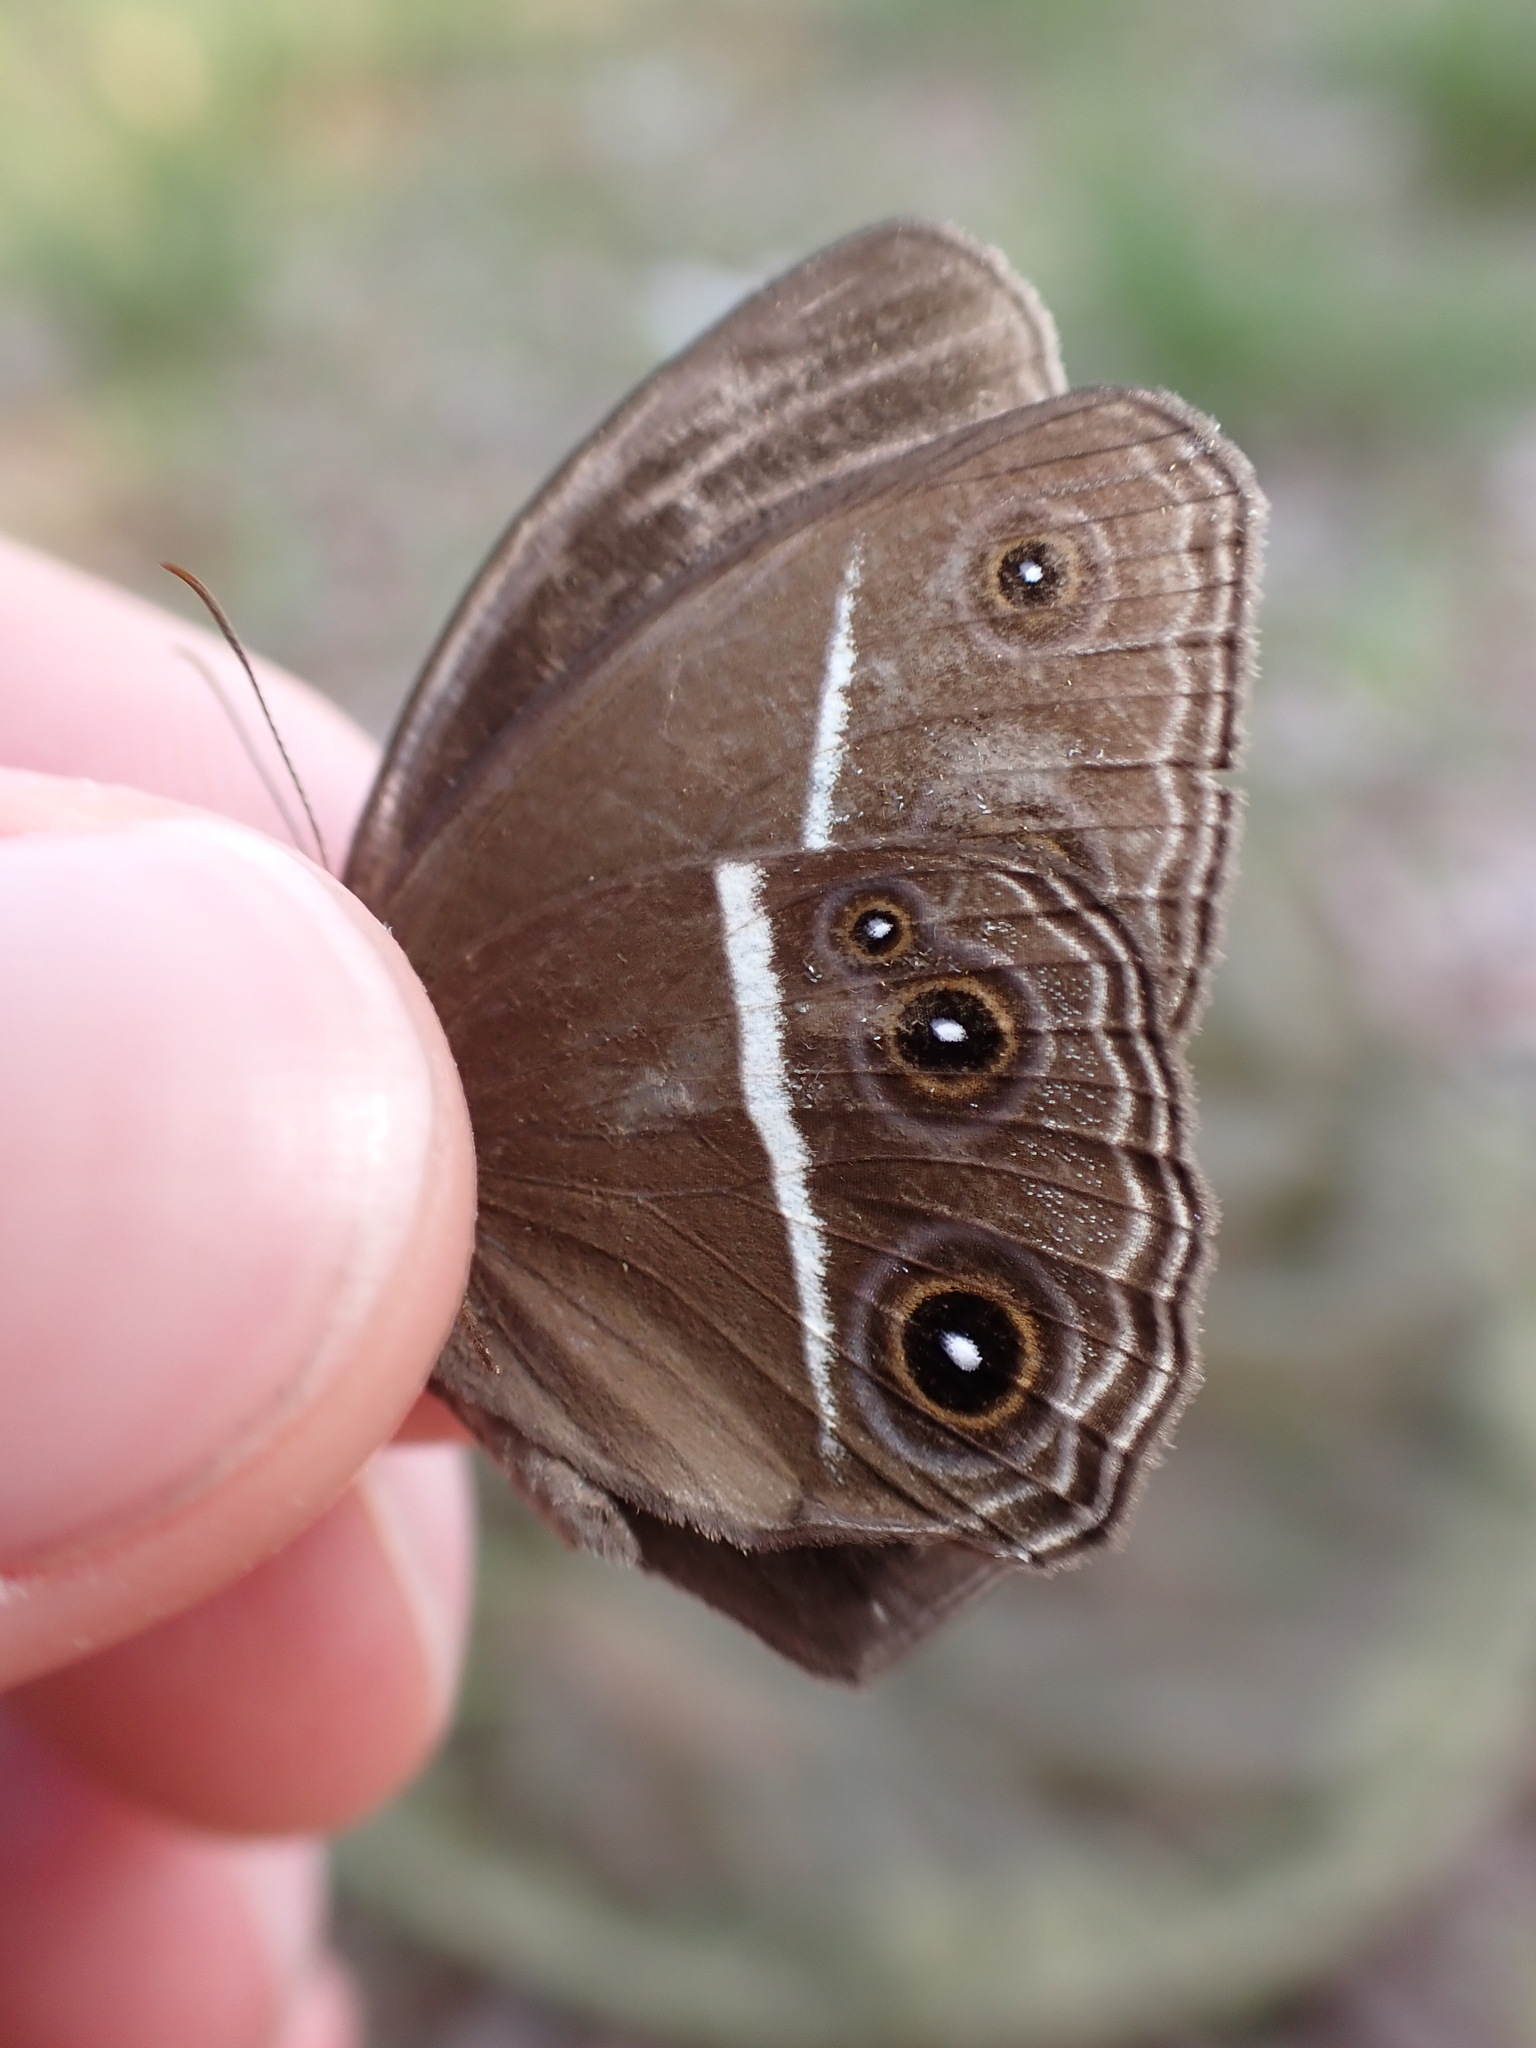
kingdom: Animalia
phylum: Arthropoda
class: Insecta
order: Lepidoptera
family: Nymphalidae
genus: Orsotriaena
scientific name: Orsotriaena medus
